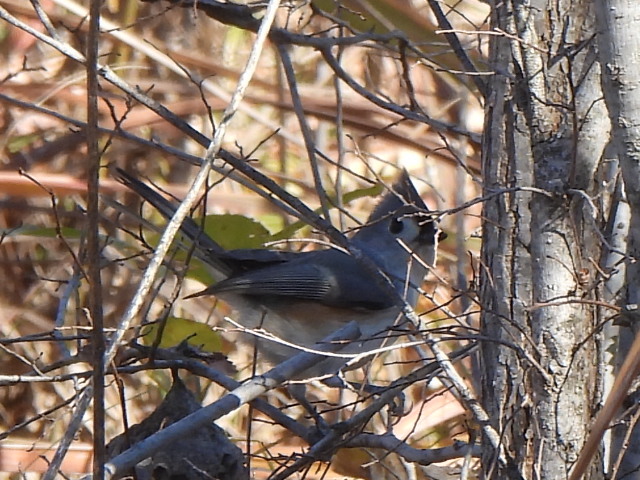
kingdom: Animalia
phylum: Chordata
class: Aves
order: Passeriformes
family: Paridae
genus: Baeolophus
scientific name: Baeolophus bicolor
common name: Tufted titmouse
